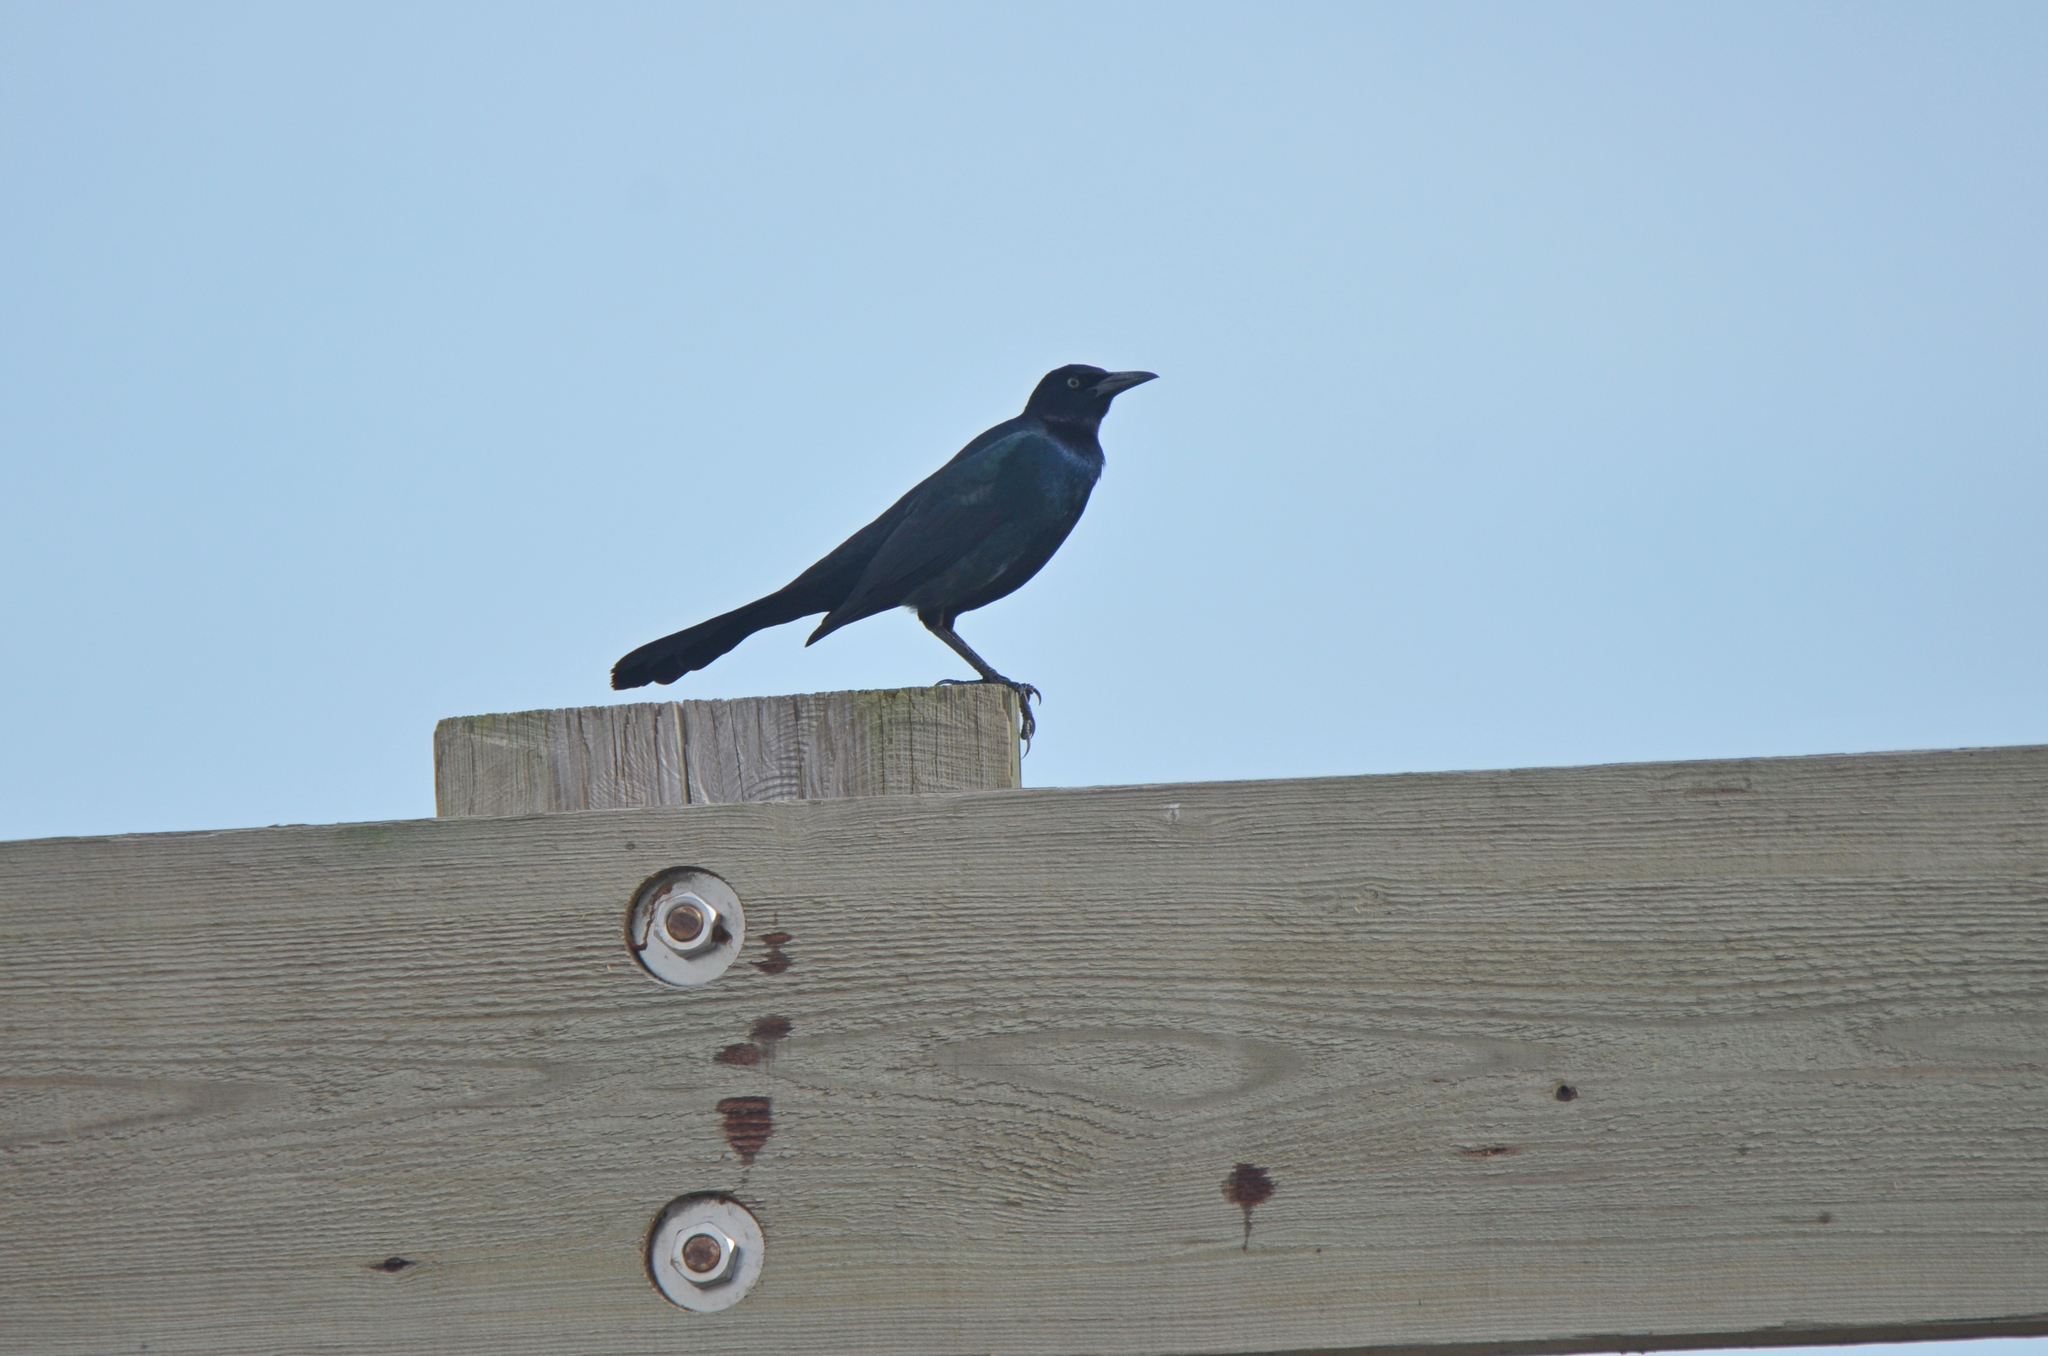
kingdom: Animalia
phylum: Chordata
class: Aves
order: Passeriformes
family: Icteridae
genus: Quiscalus
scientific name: Quiscalus major
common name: Boat-tailed grackle
